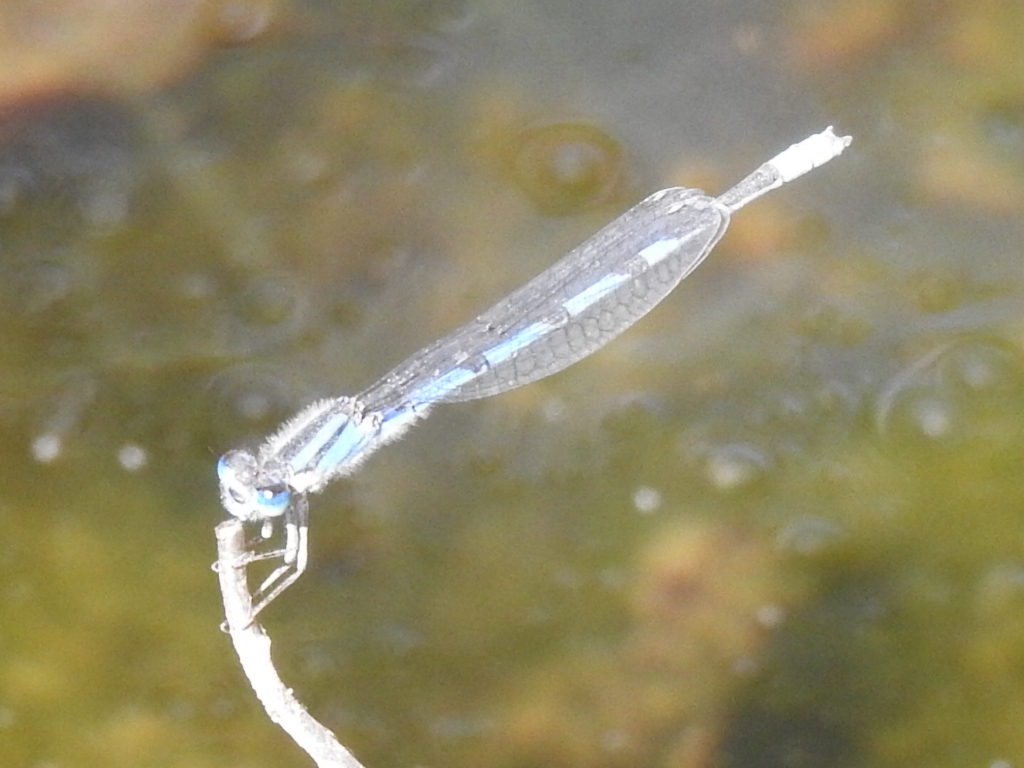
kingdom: Animalia
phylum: Arthropoda
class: Insecta
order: Odonata
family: Coenagrionidae
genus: Enallagma
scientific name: Enallagma civile
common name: Damselfly
